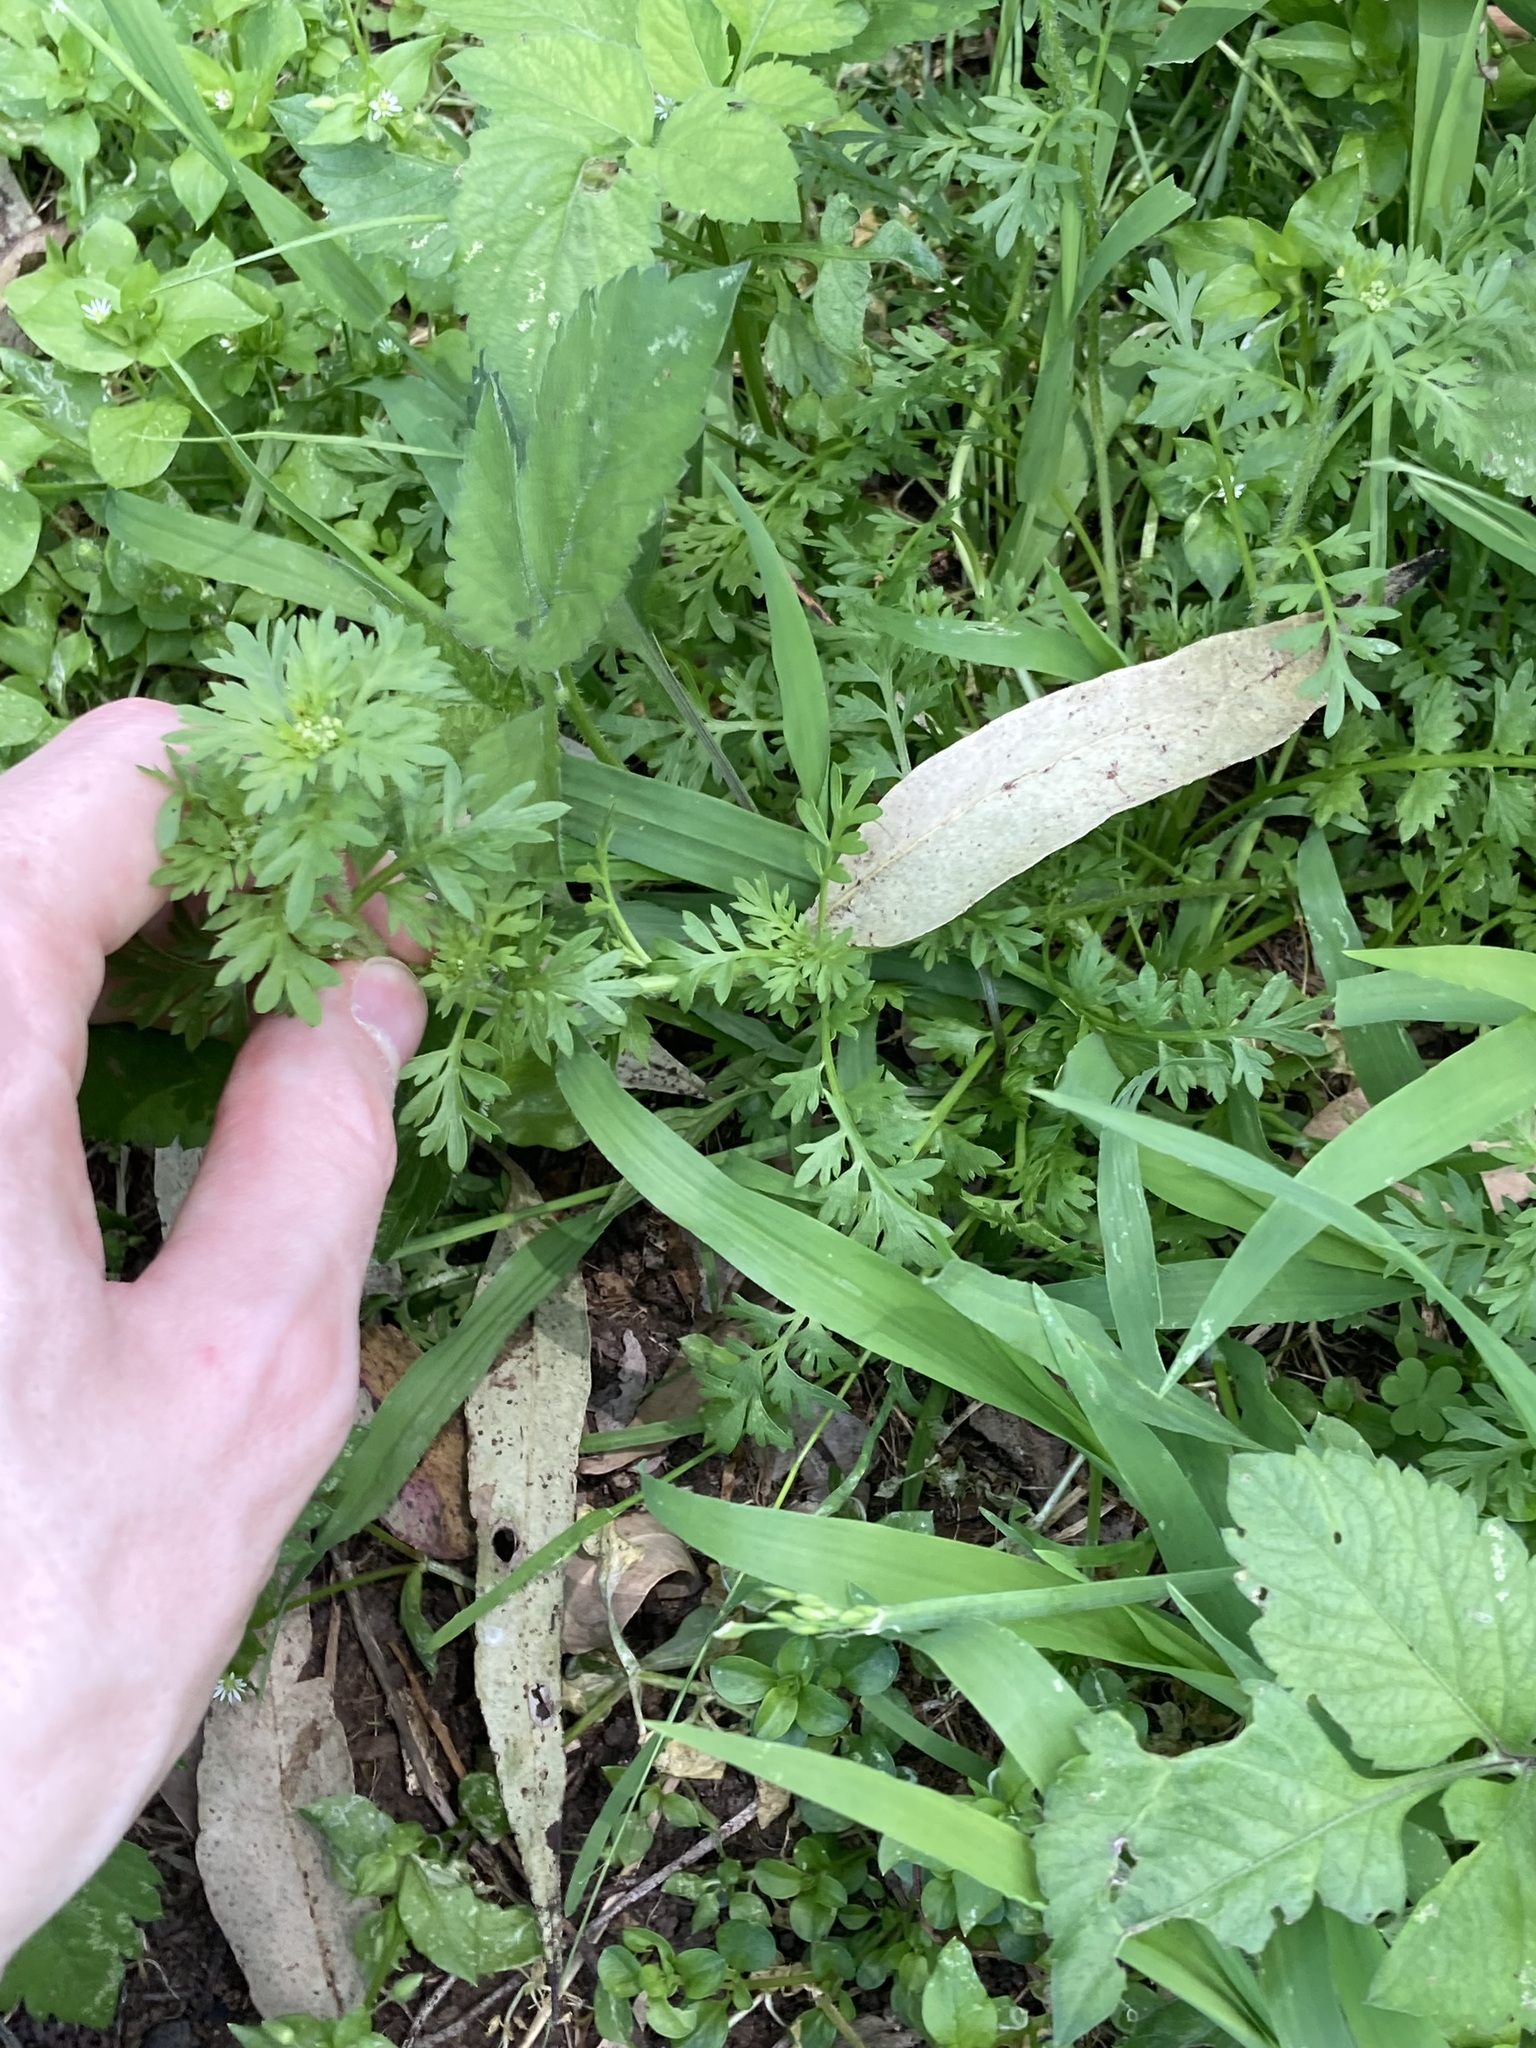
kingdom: Plantae
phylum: Tracheophyta
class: Magnoliopsida
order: Brassicales
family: Brassicaceae
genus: Lepidium
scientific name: Lepidium didymum
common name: Lesser swinecress
